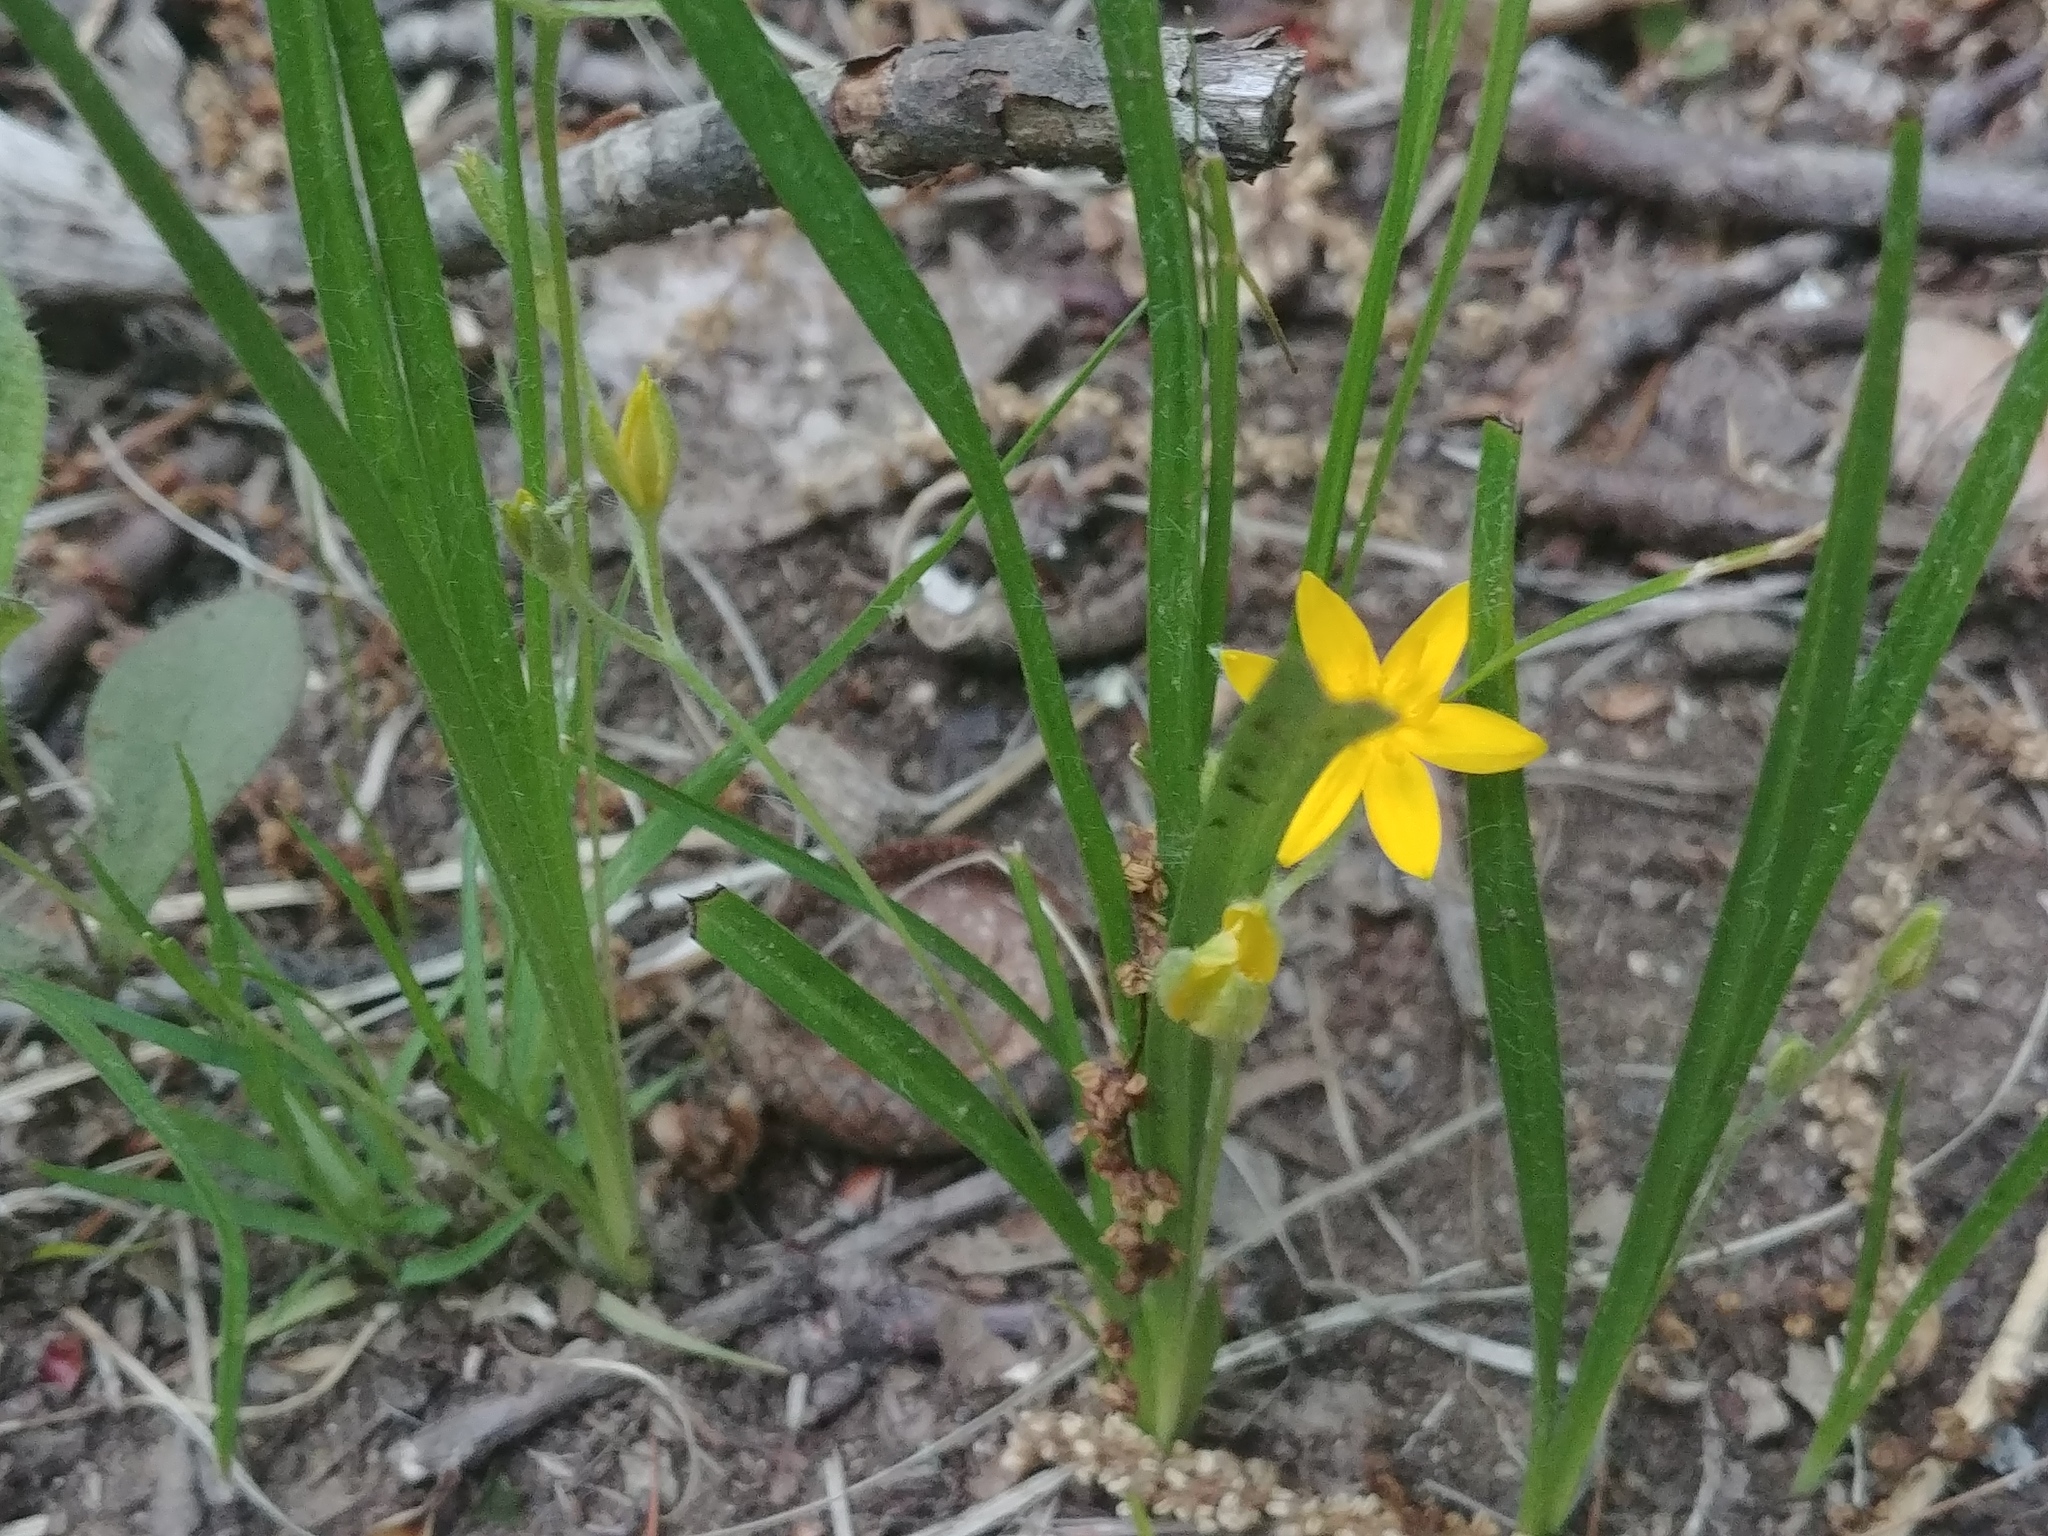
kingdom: Plantae
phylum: Tracheophyta
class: Liliopsida
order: Asparagales
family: Hypoxidaceae
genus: Hypoxis
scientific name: Hypoxis hirsuta
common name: Common goldstar
